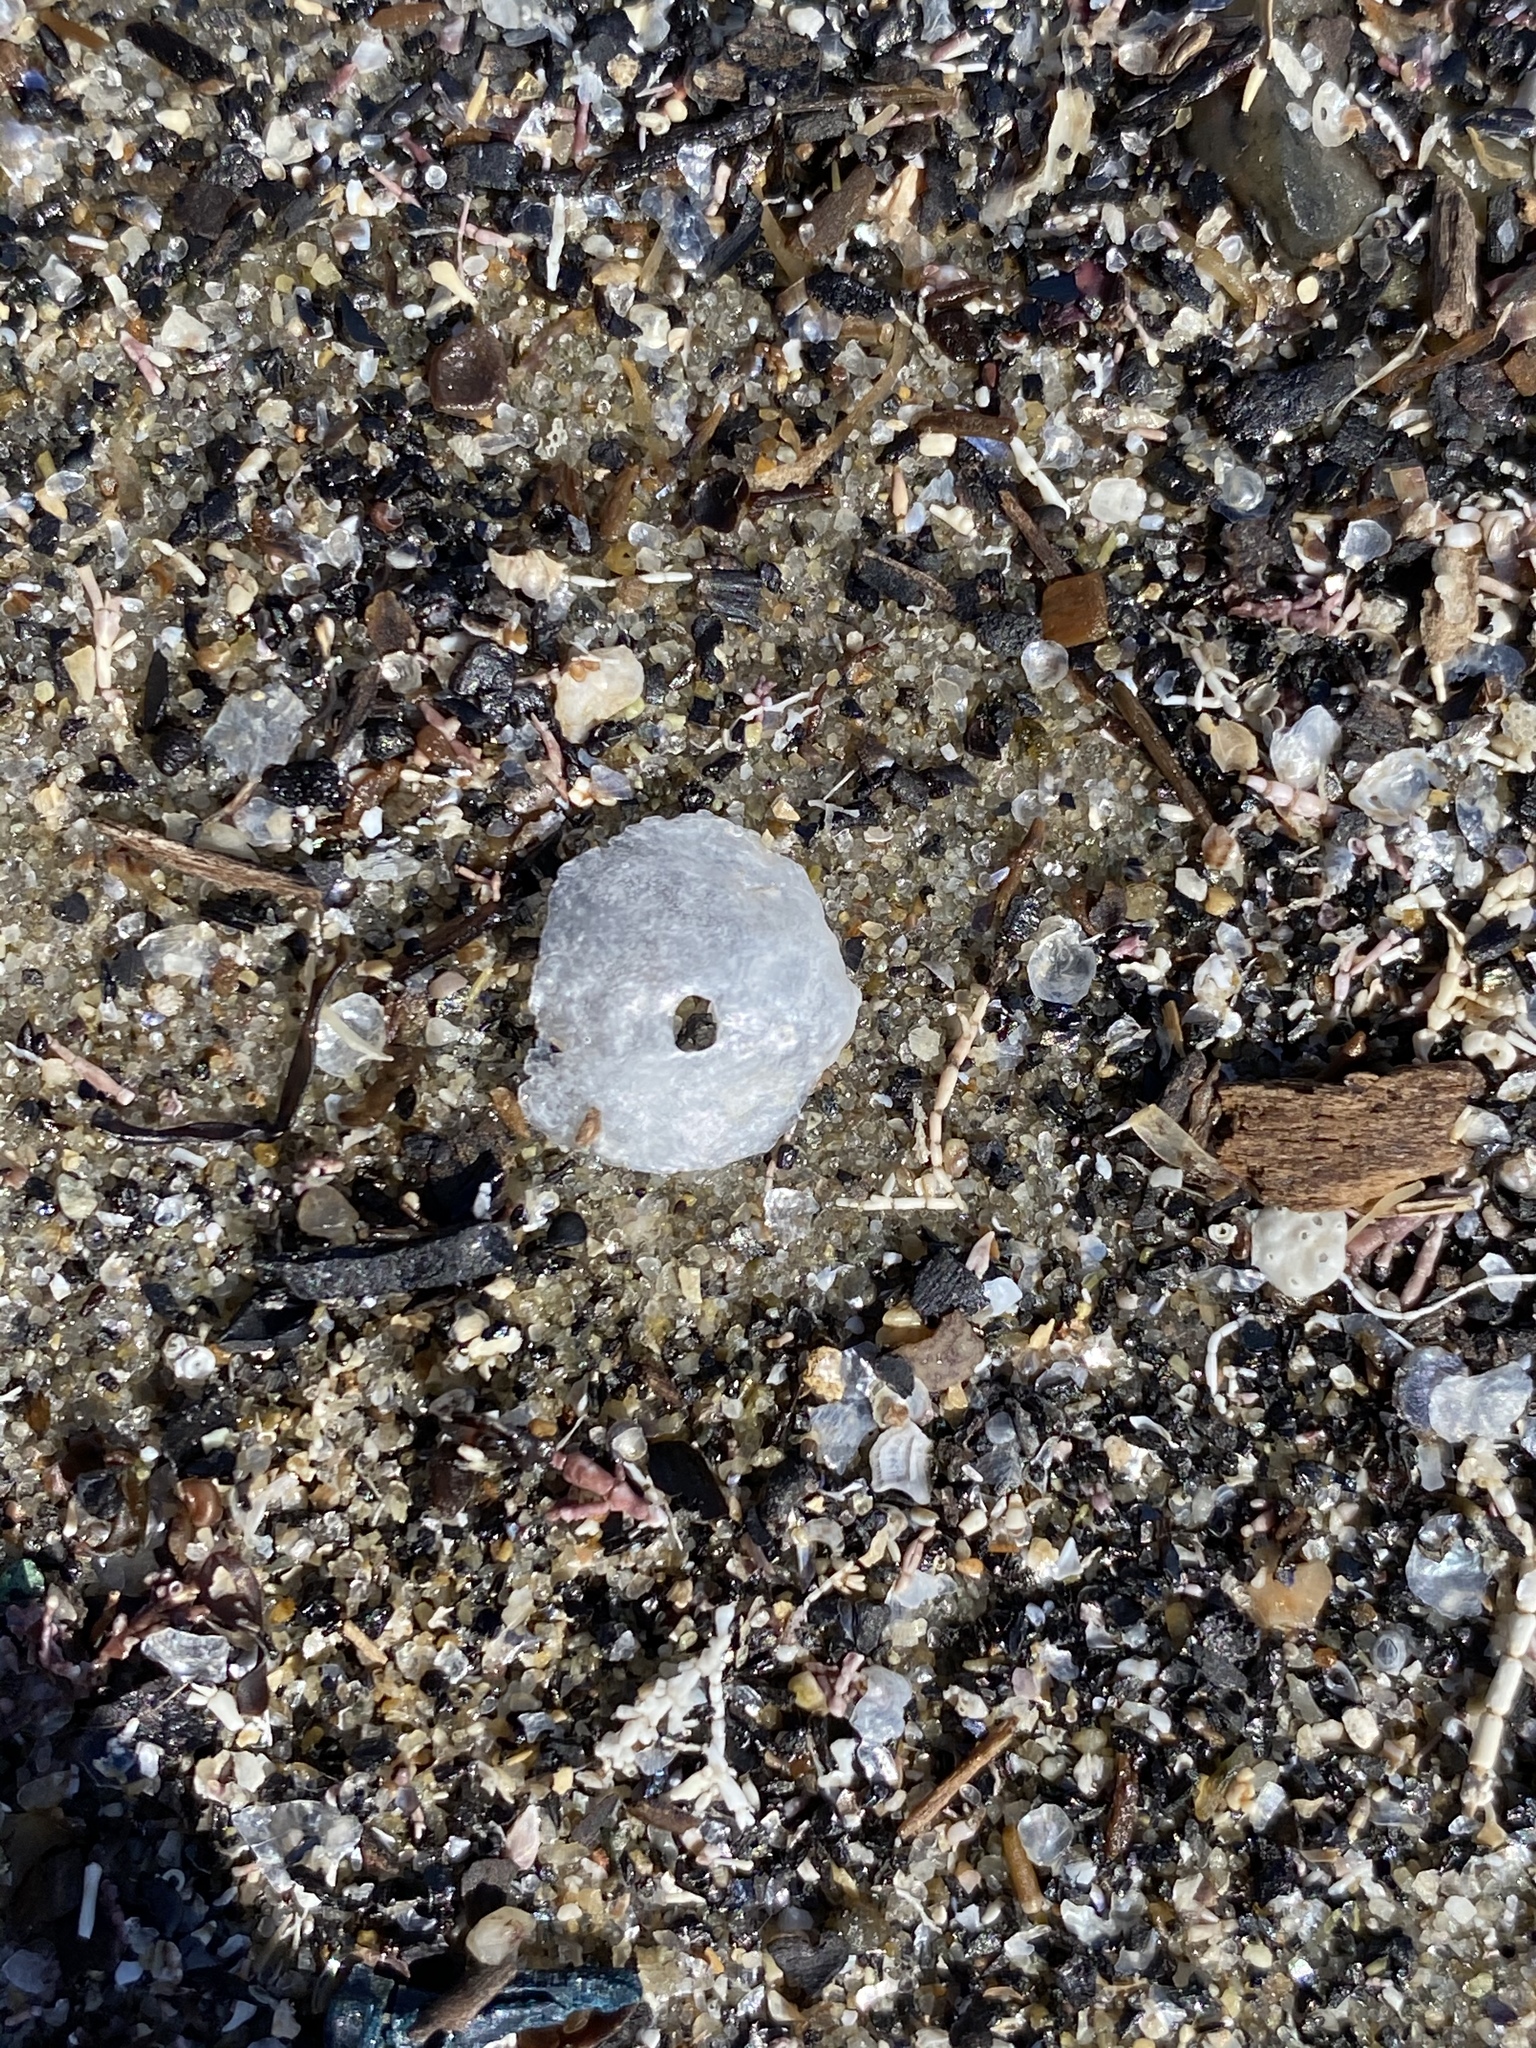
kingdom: Animalia
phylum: Mollusca
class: Bivalvia
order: Pectinida
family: Anomiidae
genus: Anomia
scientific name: Anomia simplex
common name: Common jingle shell
